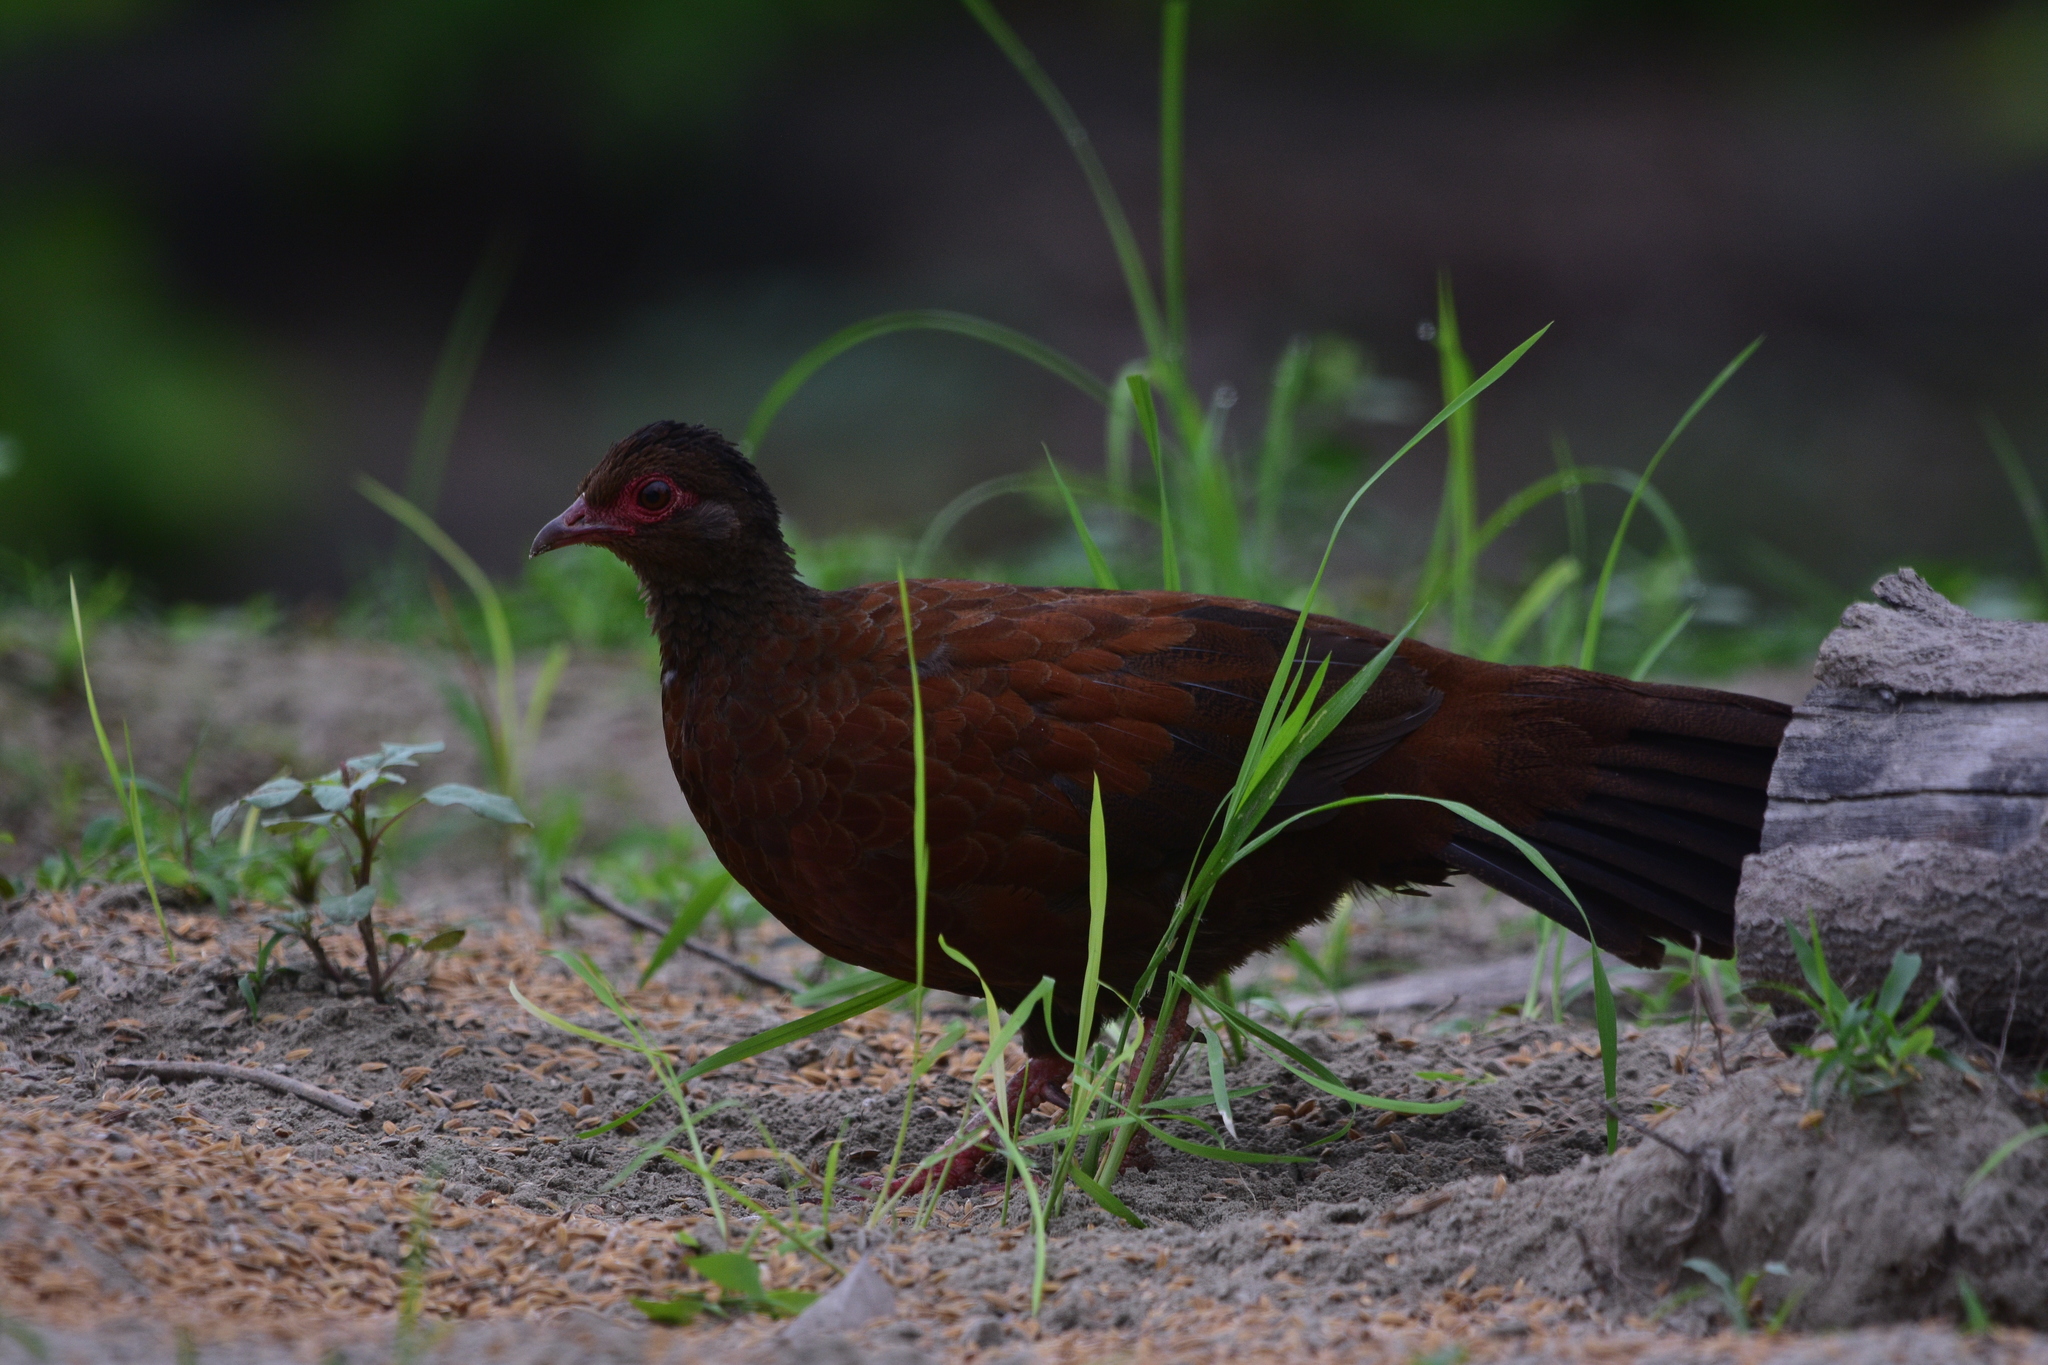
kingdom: Animalia
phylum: Chordata
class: Aves
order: Galliformes
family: Phasianidae
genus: Galloperdix
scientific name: Galloperdix spadicea
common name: Red spurfowl
